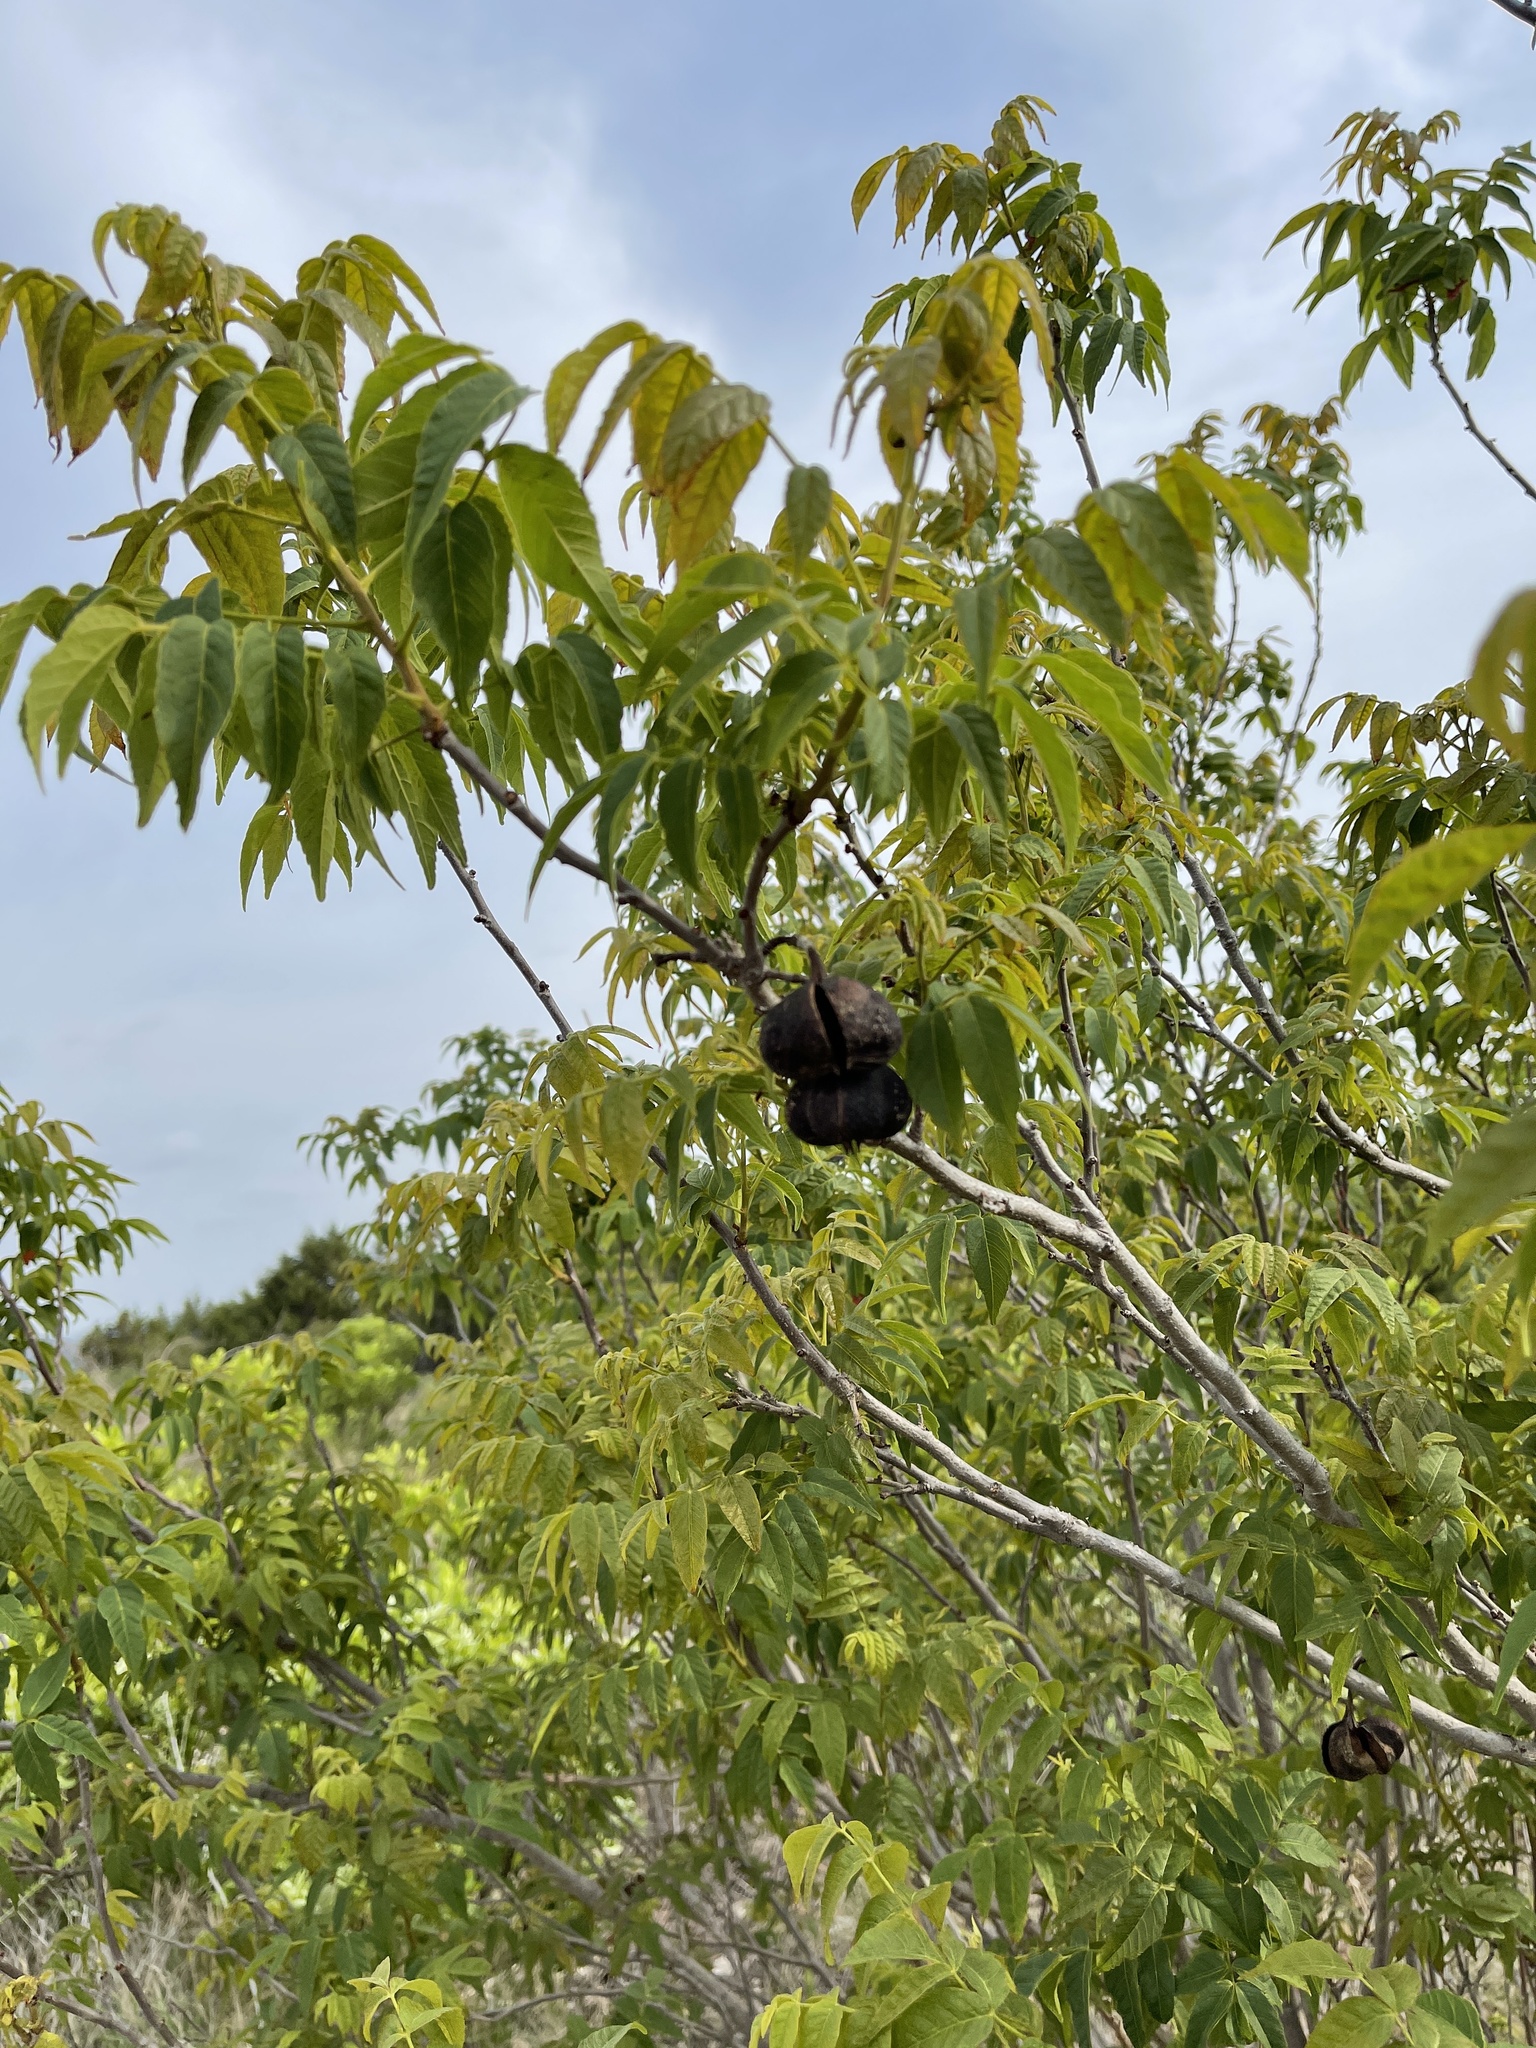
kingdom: Plantae
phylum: Tracheophyta
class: Magnoliopsida
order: Sapindales
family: Sapindaceae
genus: Ungnadia
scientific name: Ungnadia speciosa
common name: Texas-buckeye
